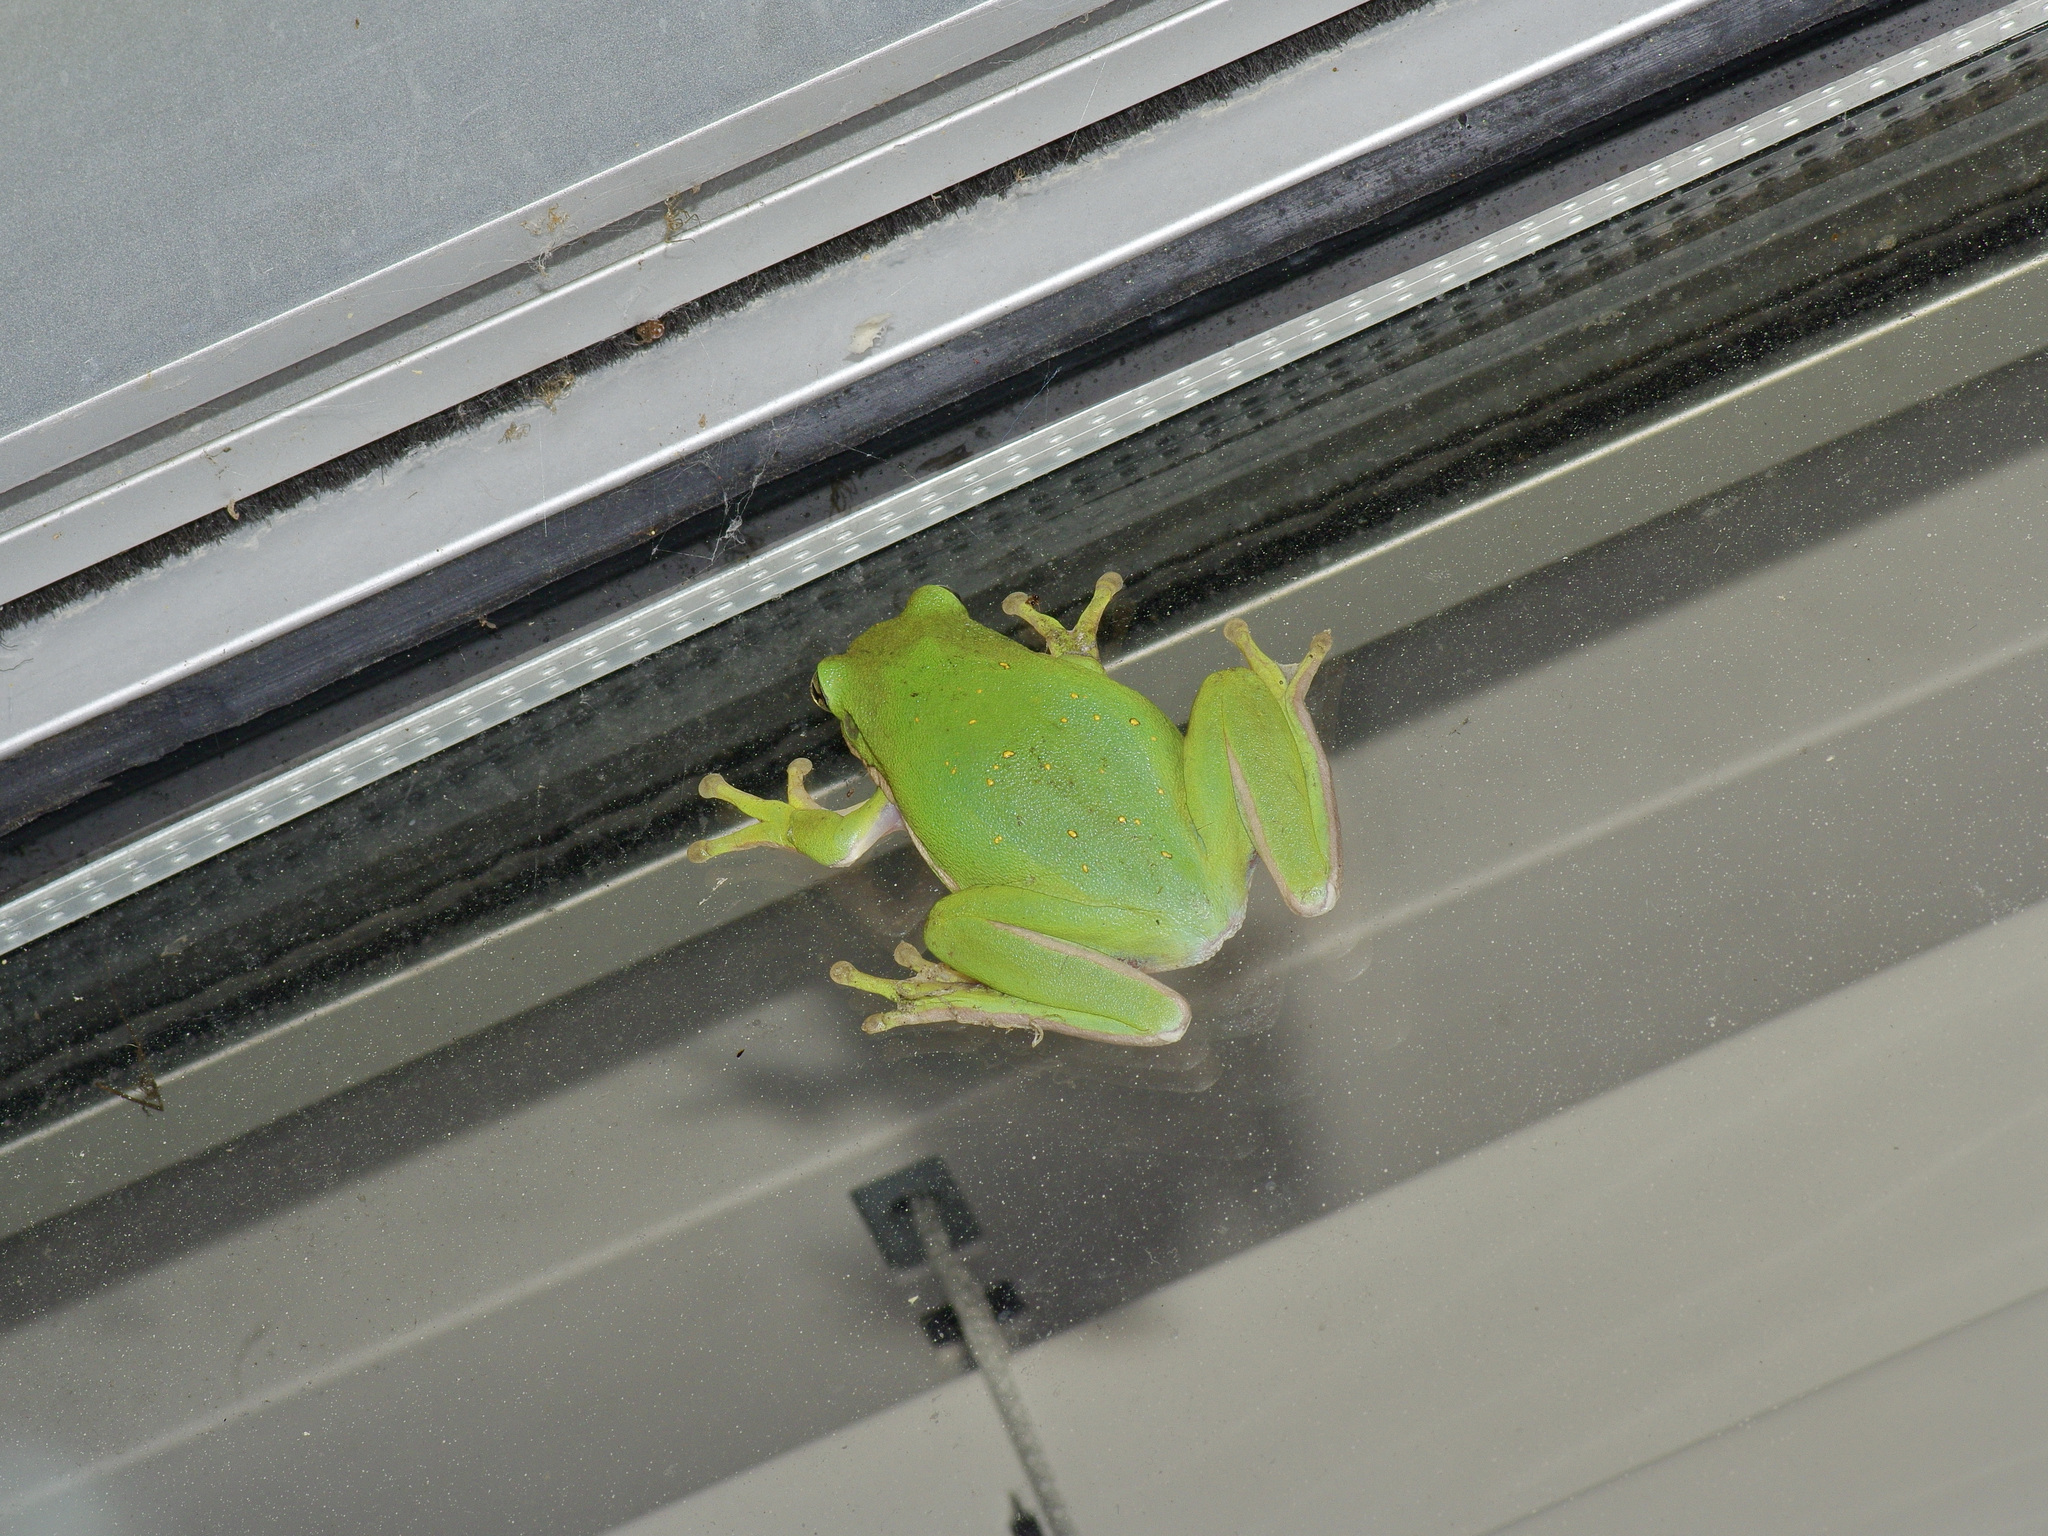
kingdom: Animalia
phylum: Chordata
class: Amphibia
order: Anura
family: Hylidae
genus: Dryophytes
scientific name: Dryophytes cinereus
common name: Green treefrog
